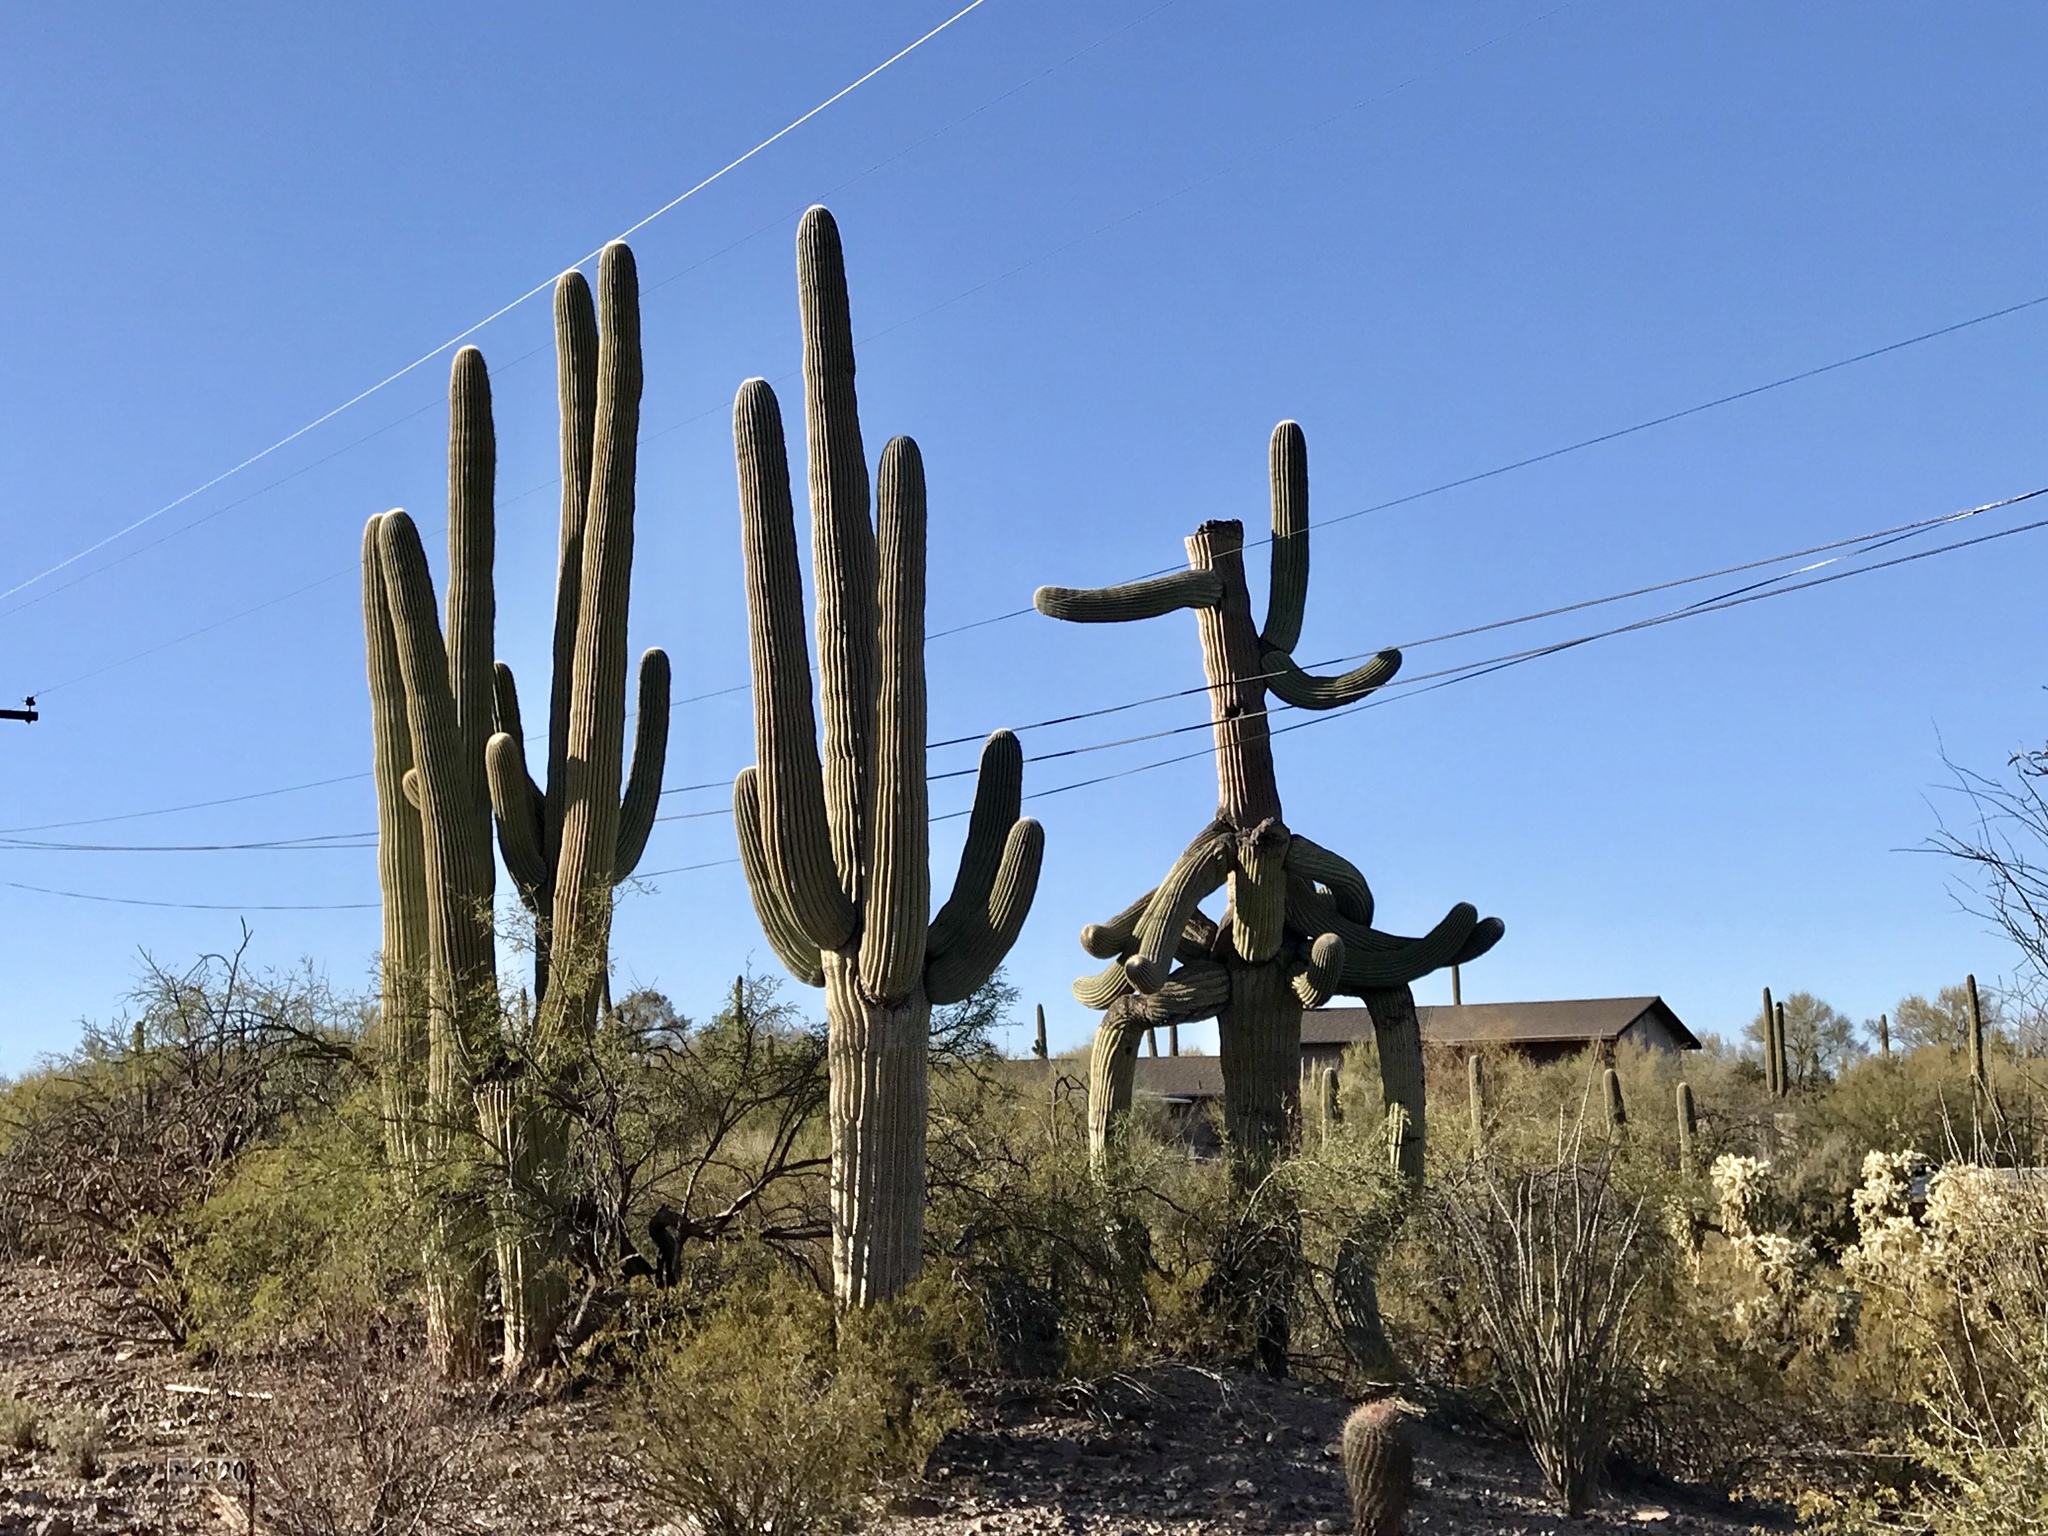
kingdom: Plantae
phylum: Tracheophyta
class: Magnoliopsida
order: Caryophyllales
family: Cactaceae
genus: Carnegiea
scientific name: Carnegiea gigantea
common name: Saguaro
